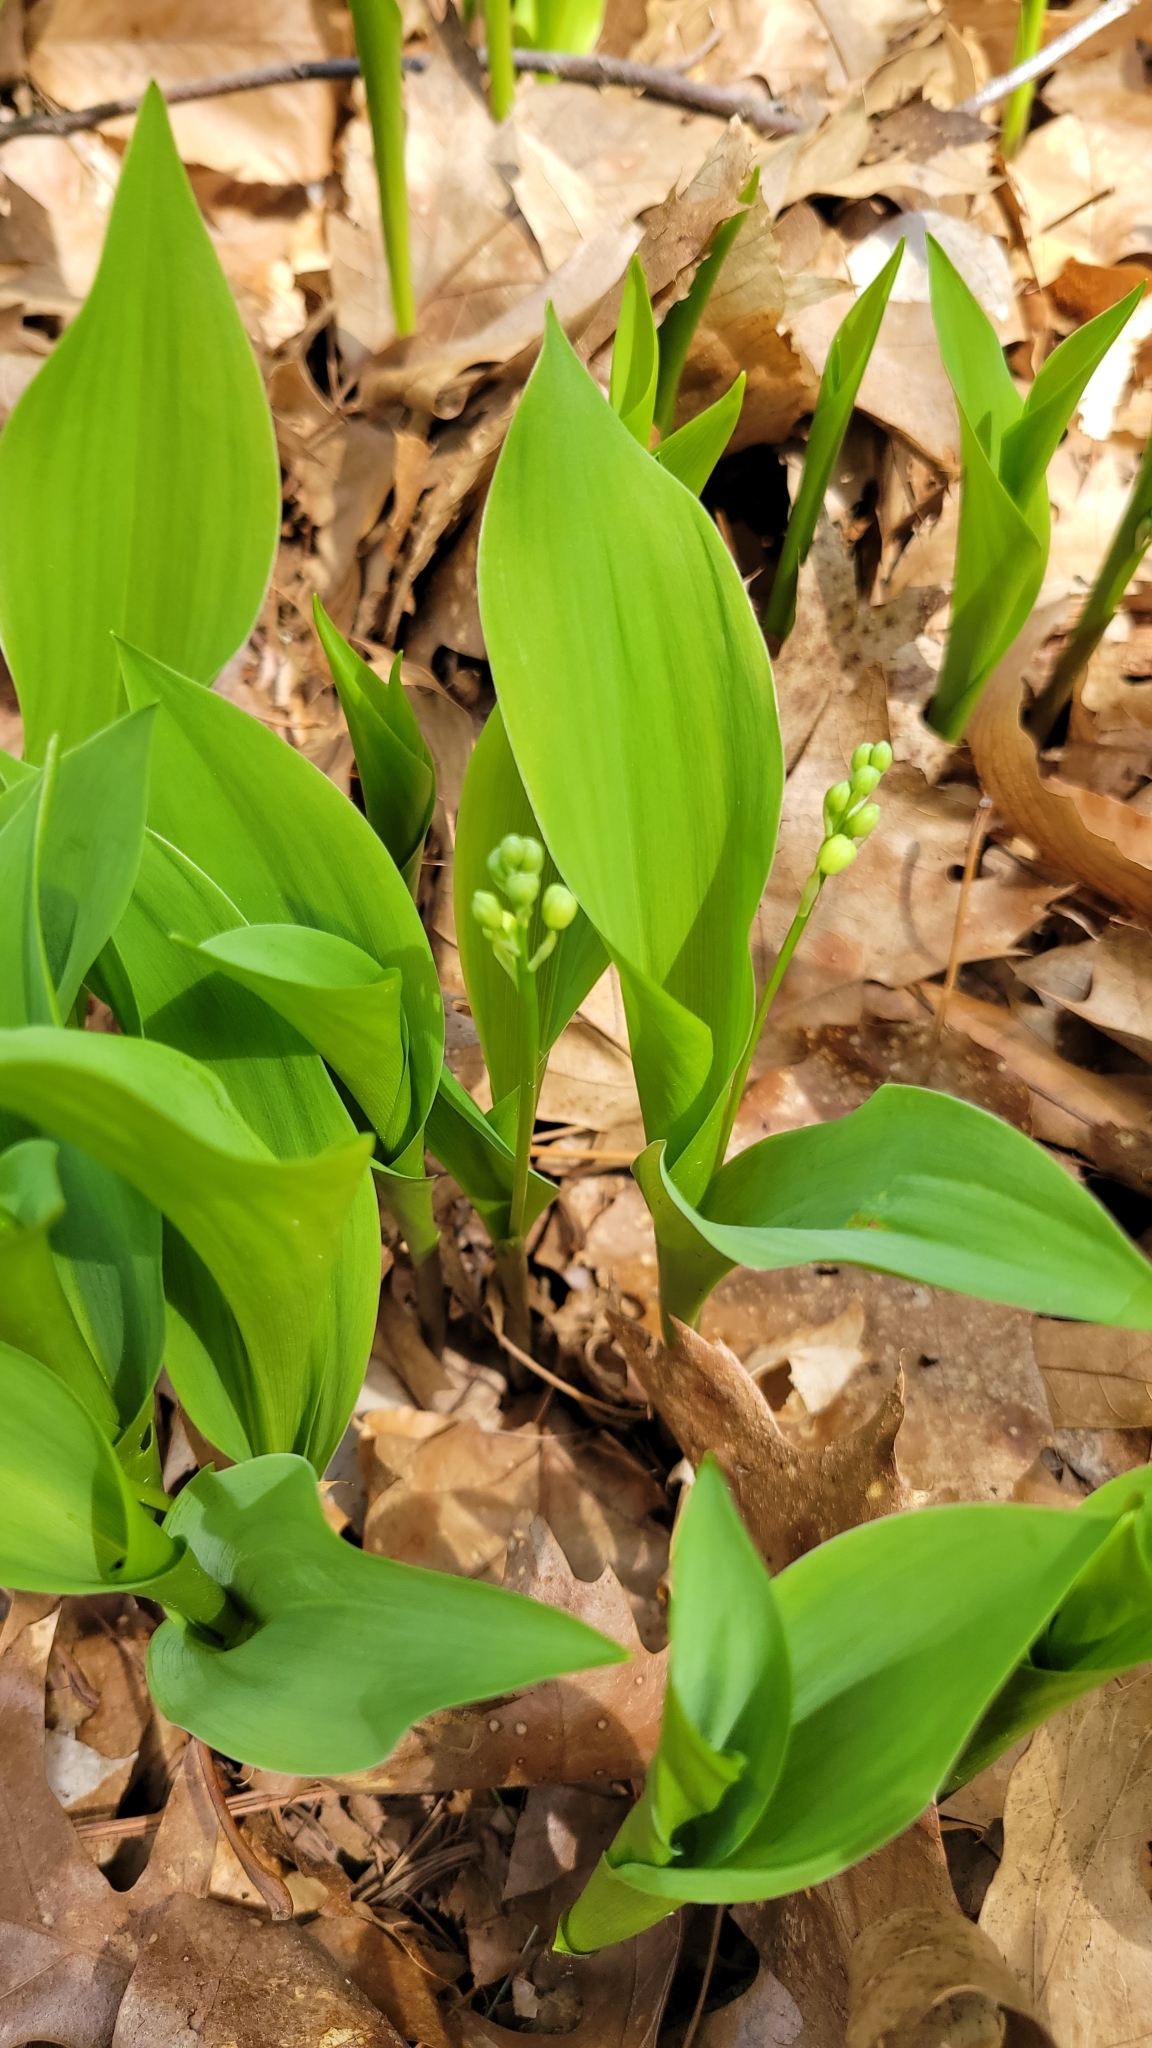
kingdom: Plantae
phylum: Tracheophyta
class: Liliopsida
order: Asparagales
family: Asparagaceae
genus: Convallaria
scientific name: Convallaria majalis
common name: Lily-of-the-valley
